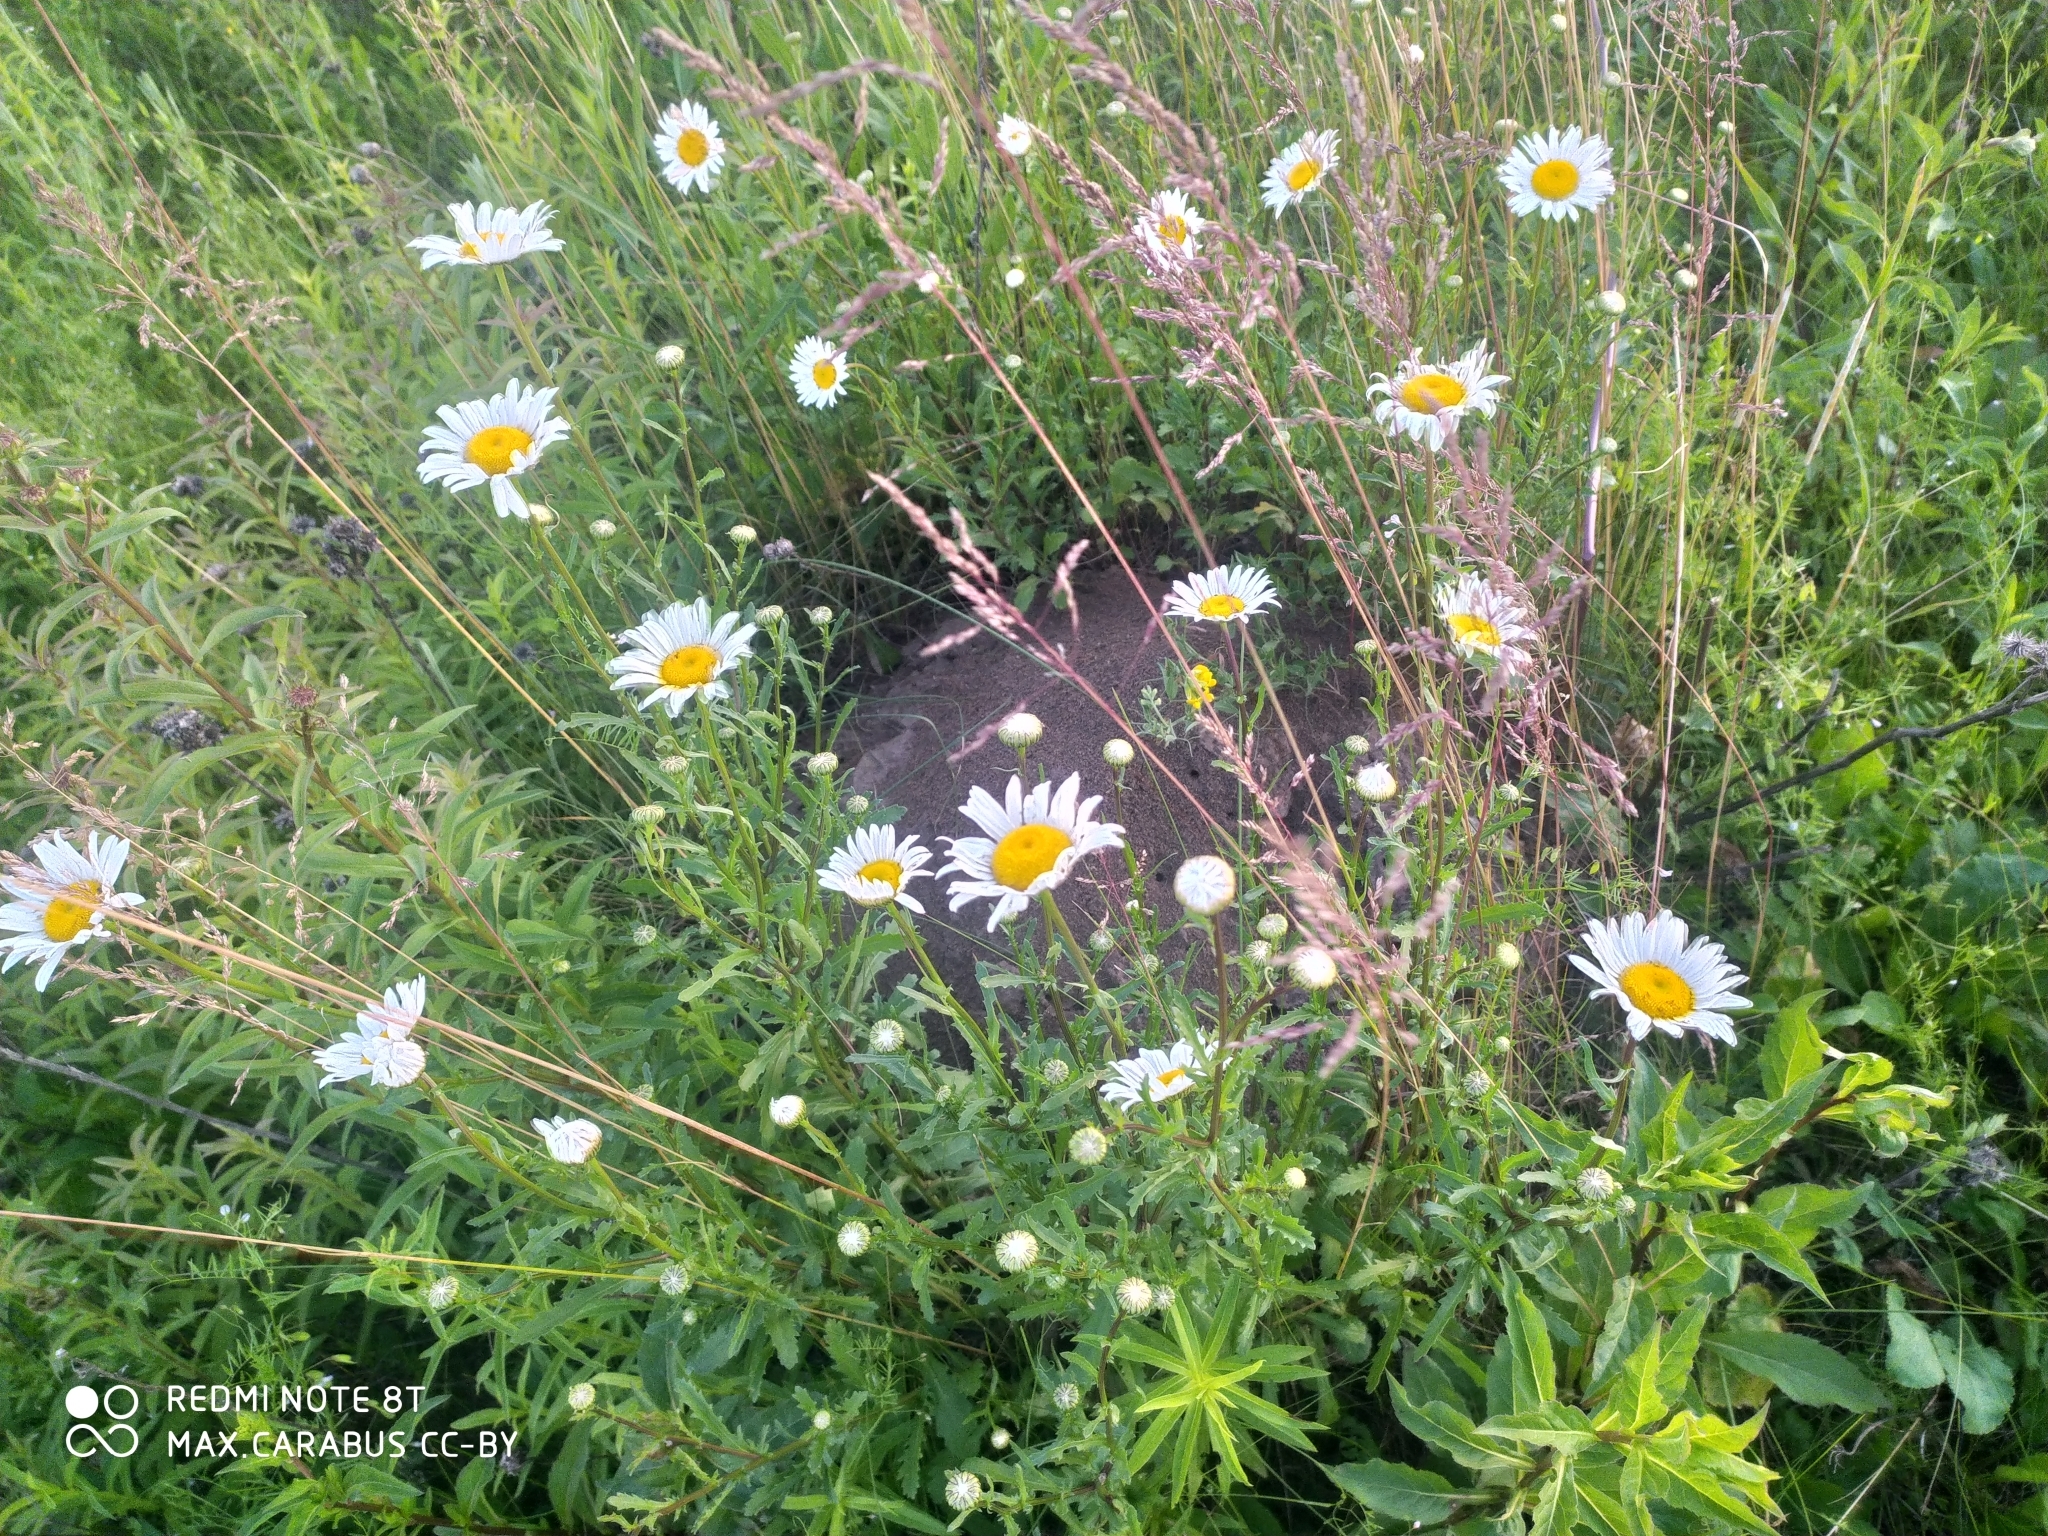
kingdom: Plantae
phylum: Tracheophyta
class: Magnoliopsida
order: Asterales
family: Asteraceae
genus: Leucanthemum
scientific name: Leucanthemum vulgare
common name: Oxeye daisy
